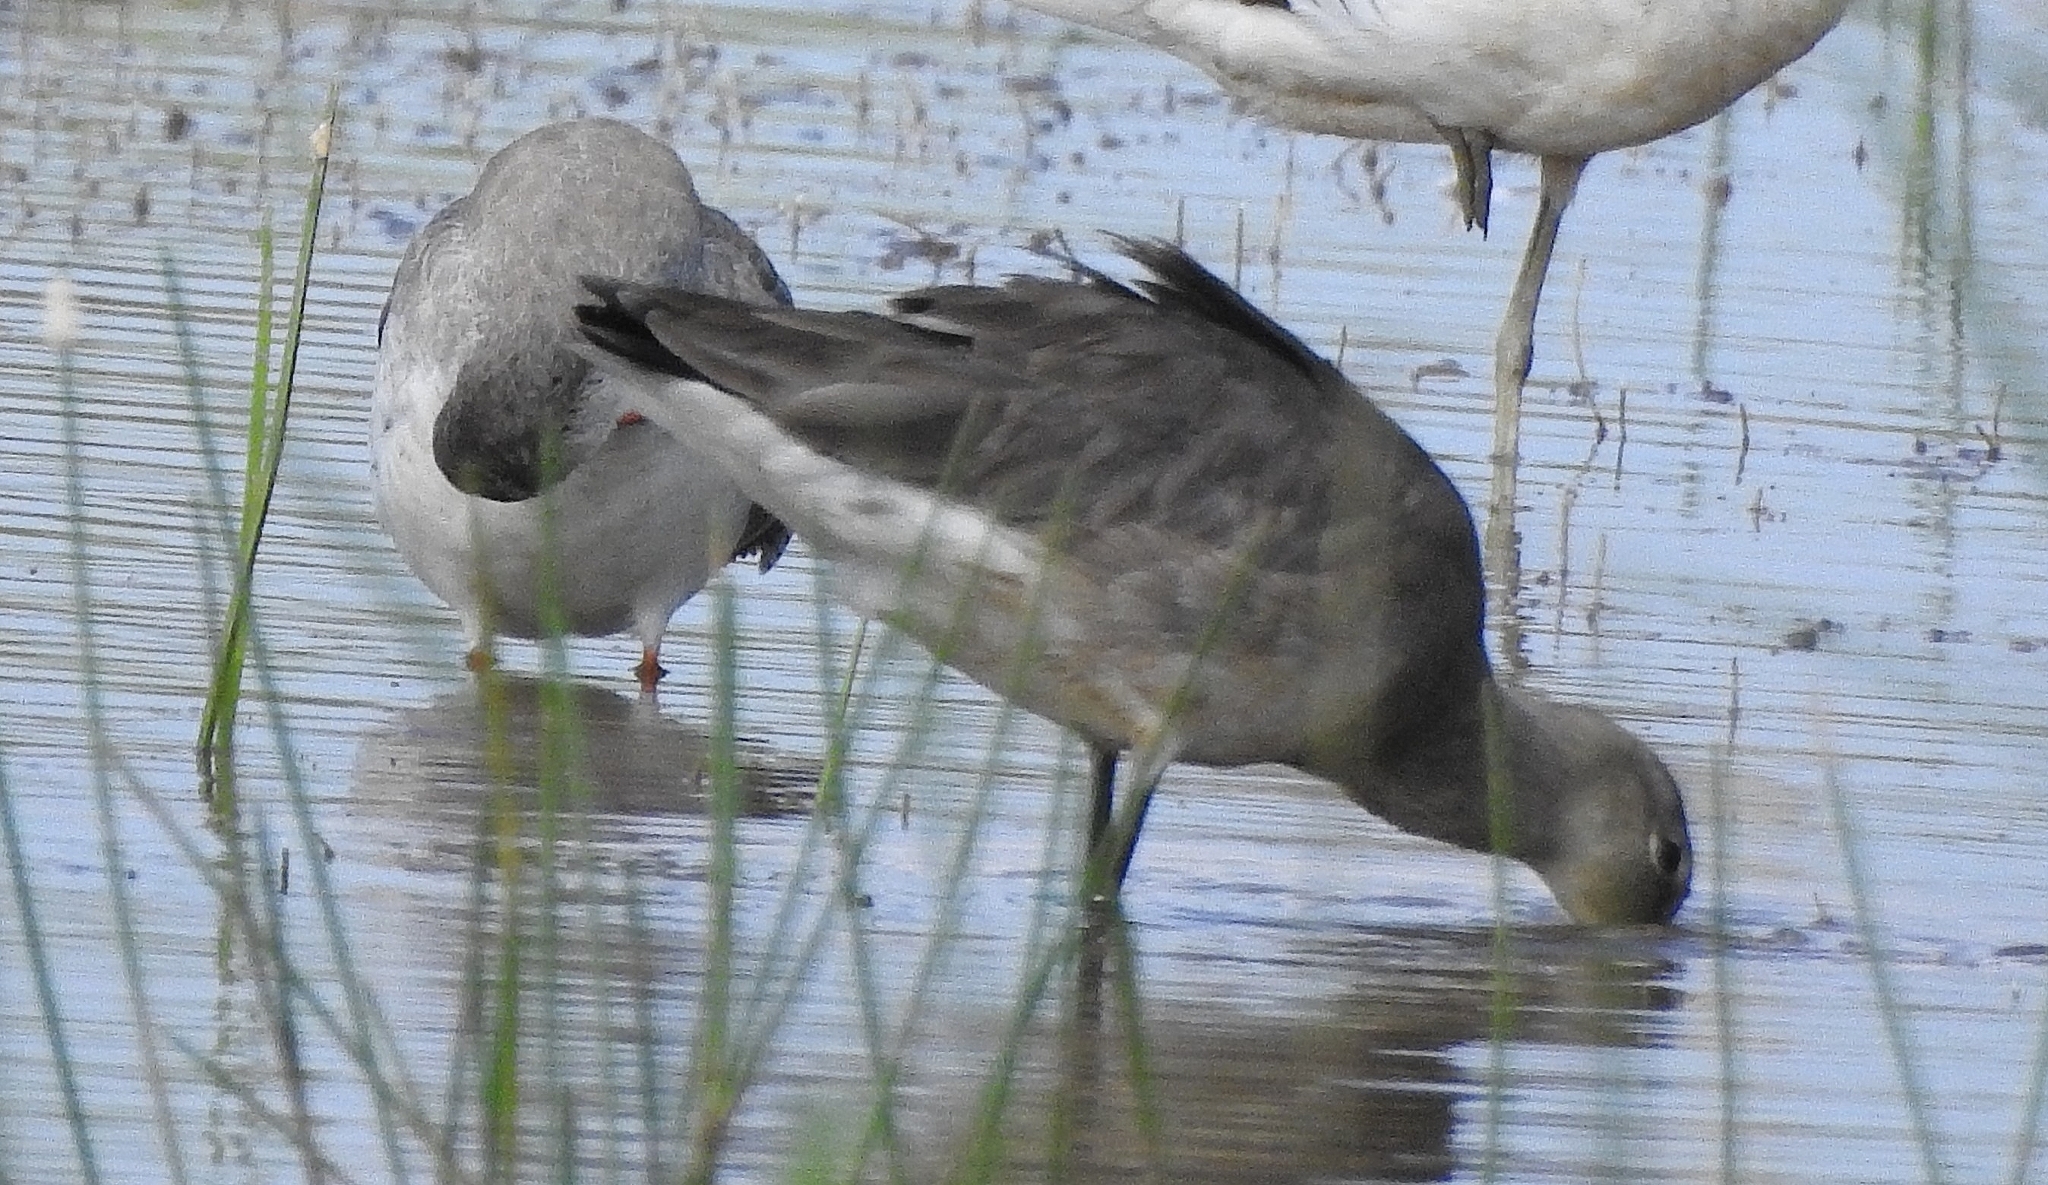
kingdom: Animalia
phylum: Chordata
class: Aves
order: Charadriiformes
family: Scolopacidae
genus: Limosa
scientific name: Limosa limosa
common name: Black-tailed godwit
